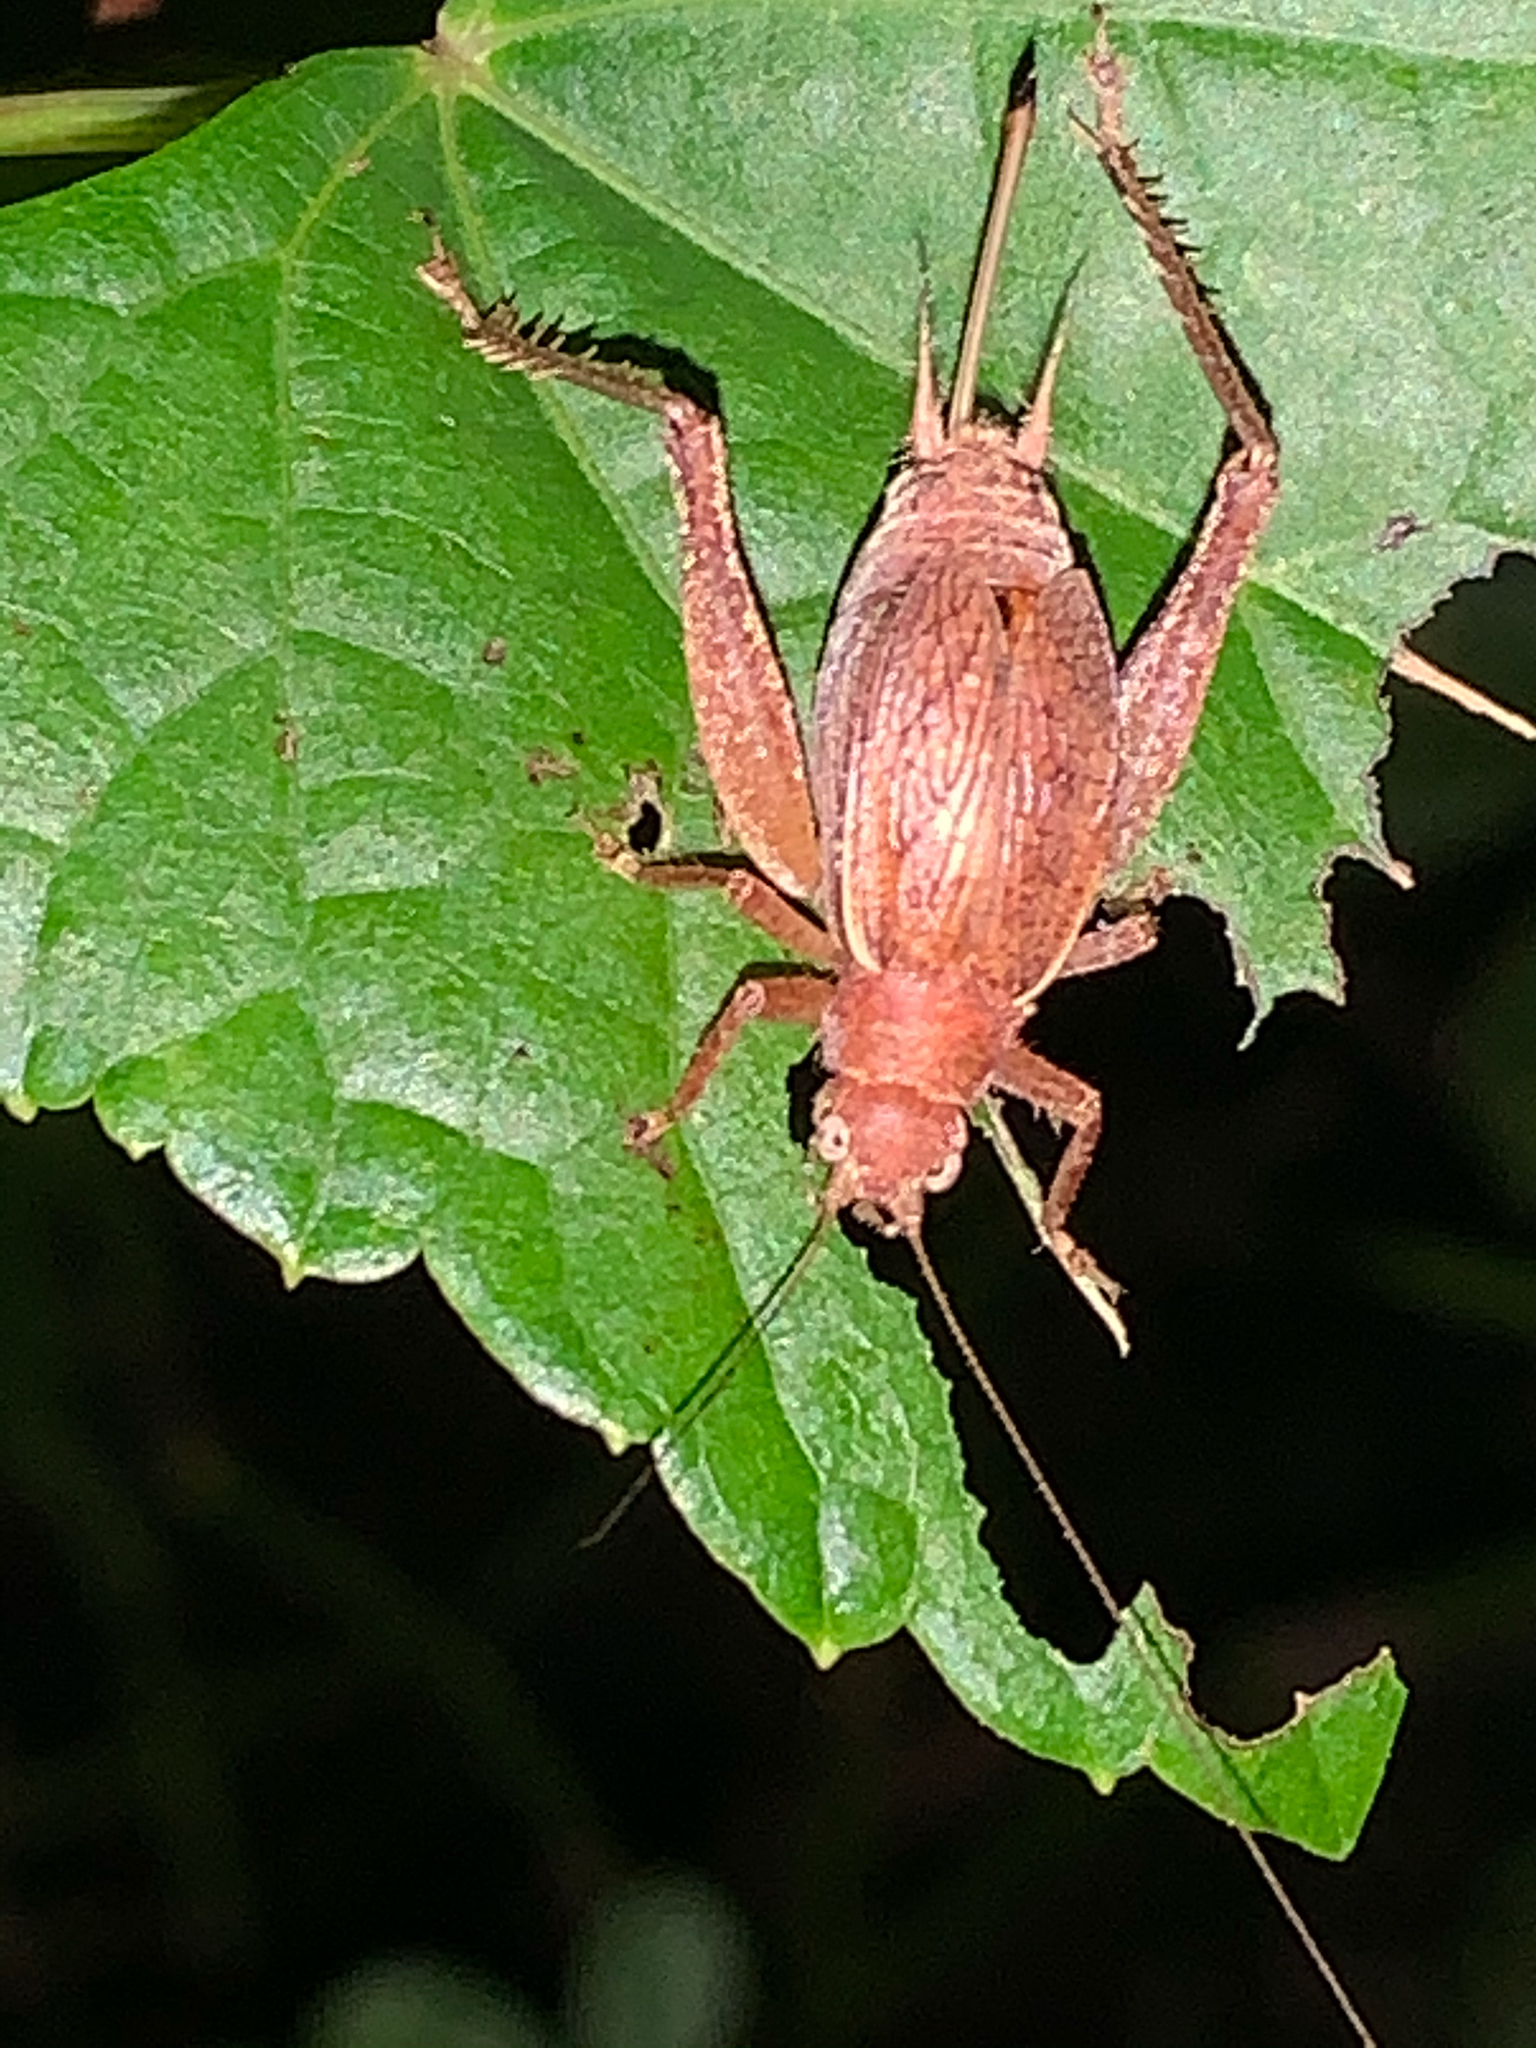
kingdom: Animalia
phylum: Arthropoda
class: Insecta
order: Orthoptera
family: Gryllidae
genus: Hapithus
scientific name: Hapithus agitator
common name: Restless bush cricket
